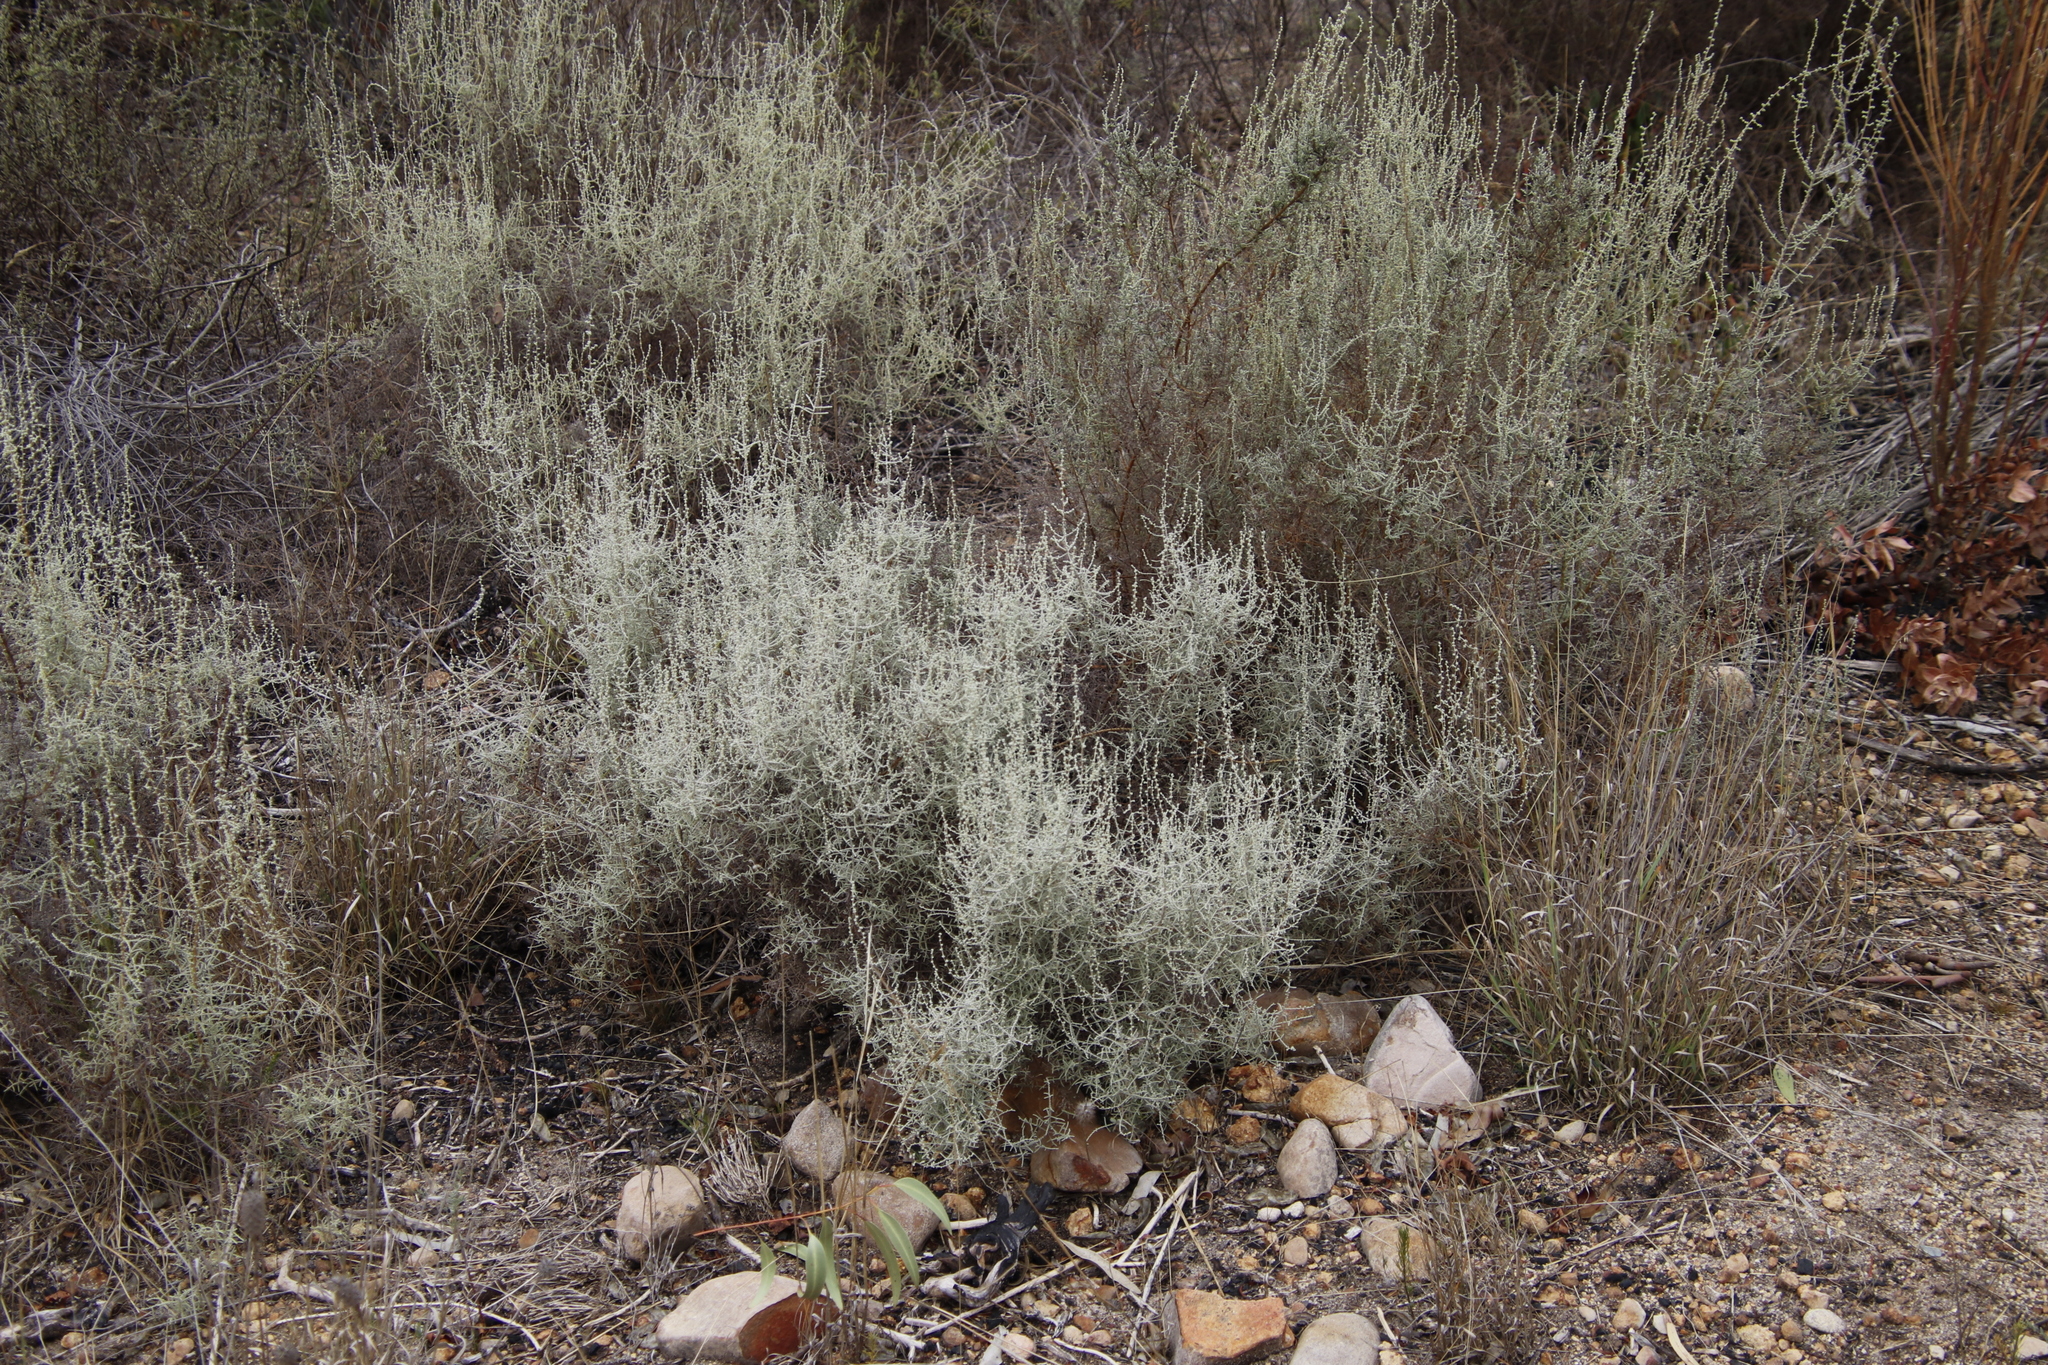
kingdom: Plantae
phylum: Tracheophyta
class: Magnoliopsida
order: Asterales
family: Asteraceae
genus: Seriphium
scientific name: Seriphium plumosum
